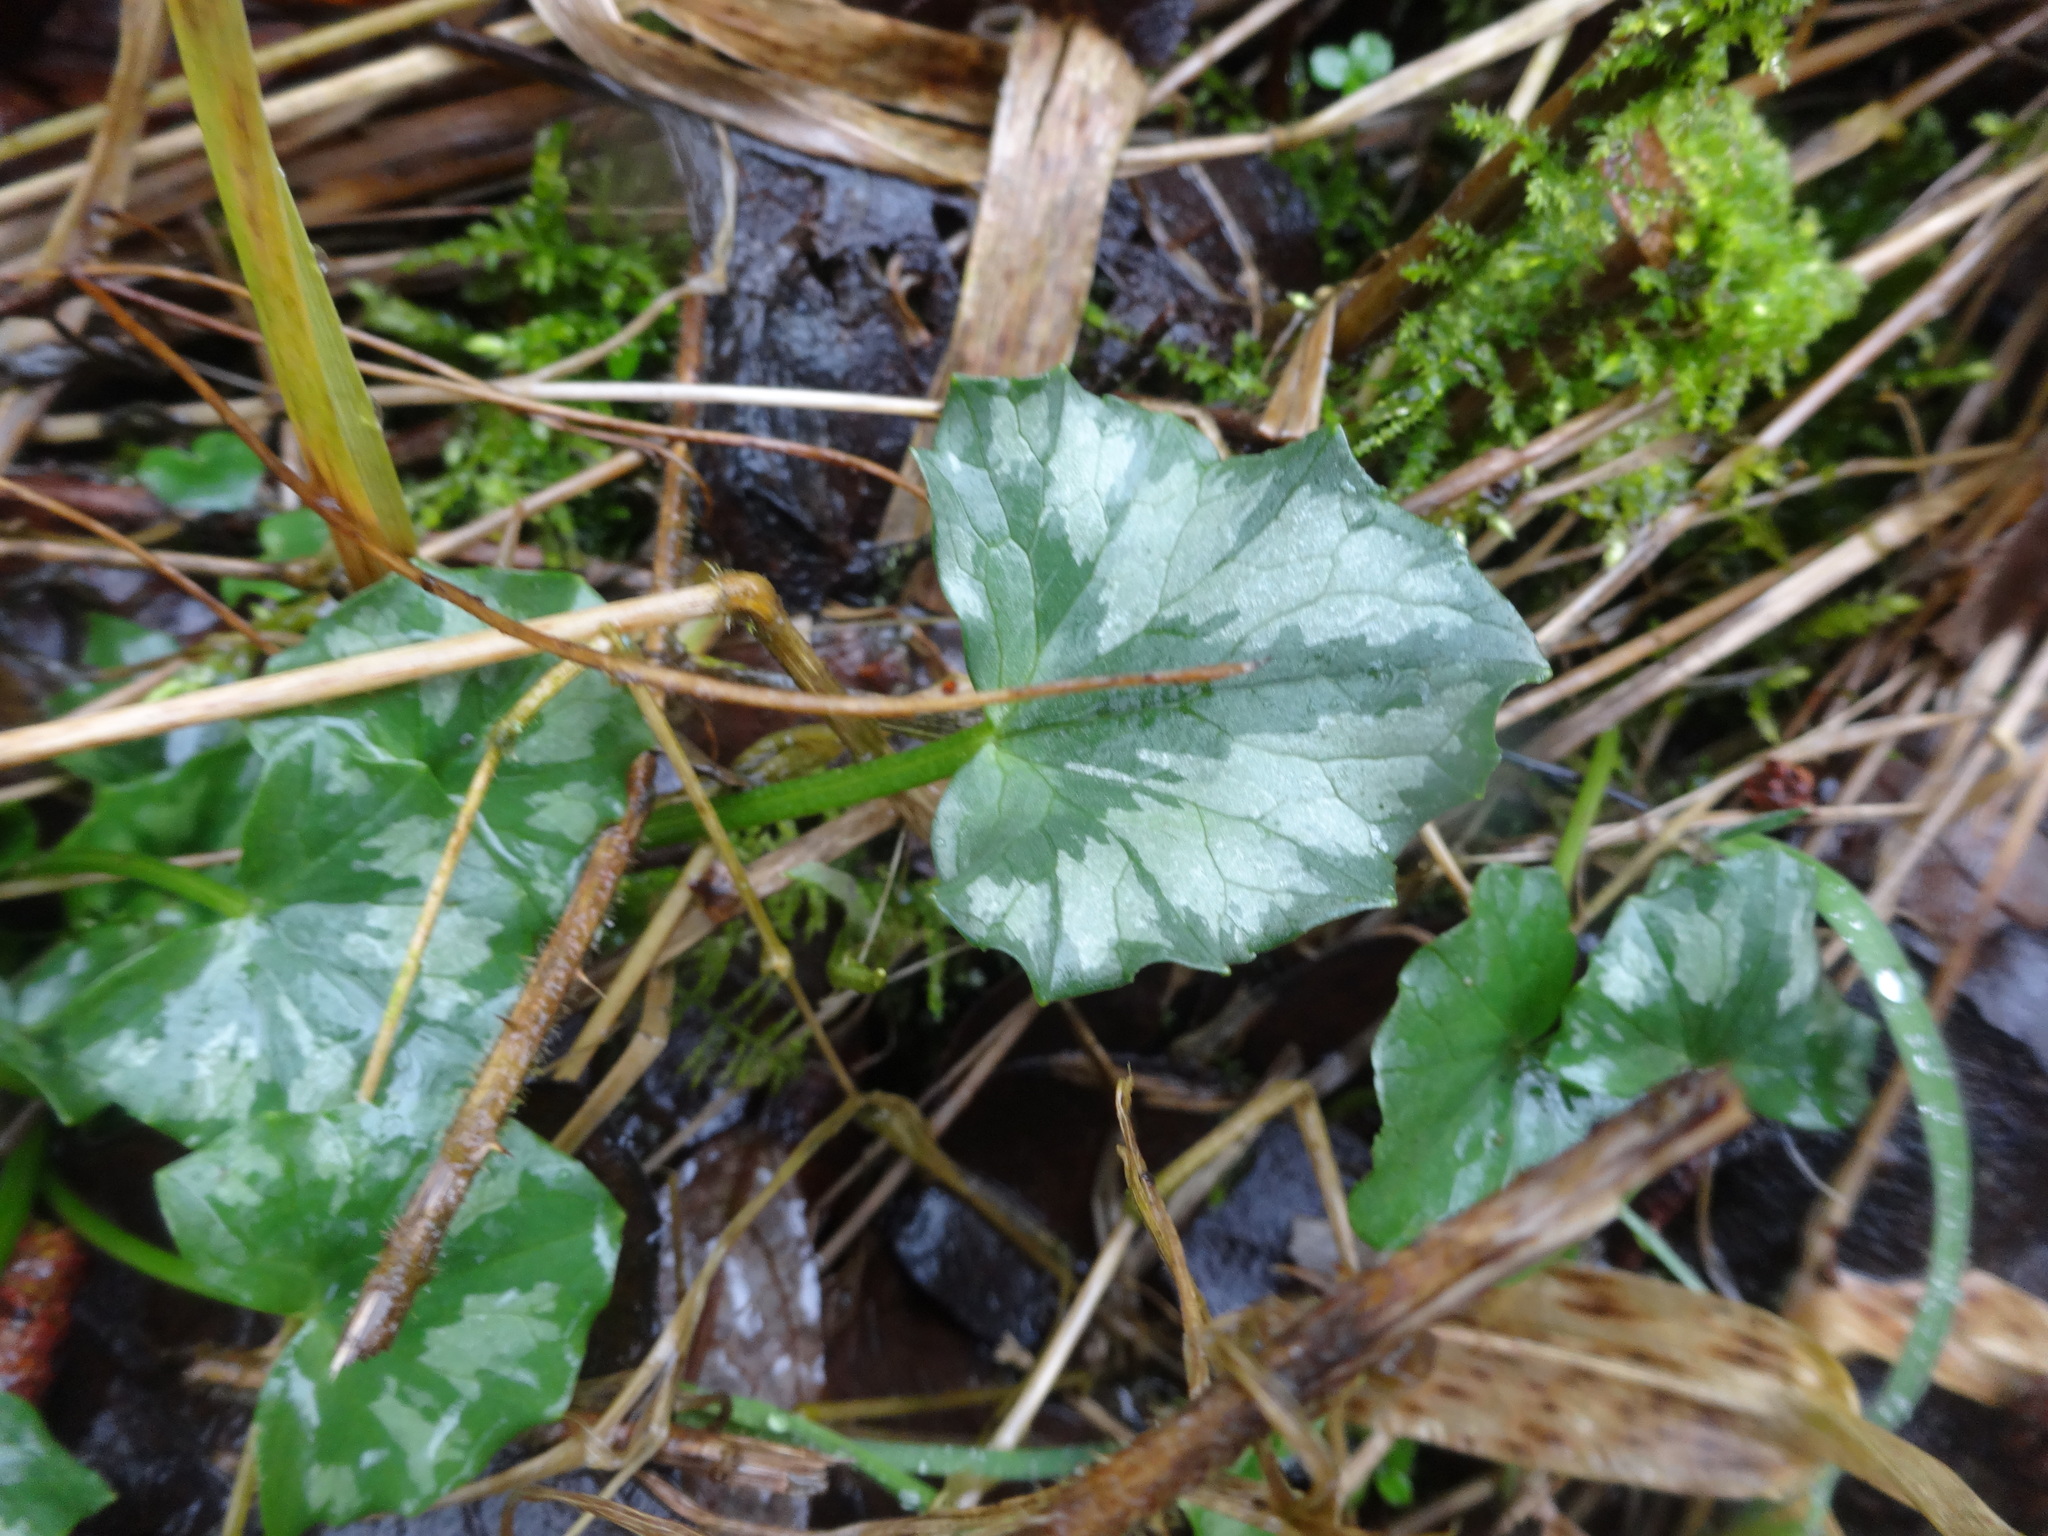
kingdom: Plantae
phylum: Tracheophyta
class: Magnoliopsida
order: Ranunculales
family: Ranunculaceae
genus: Ficaria
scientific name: Ficaria verna
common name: Lesser celandine
